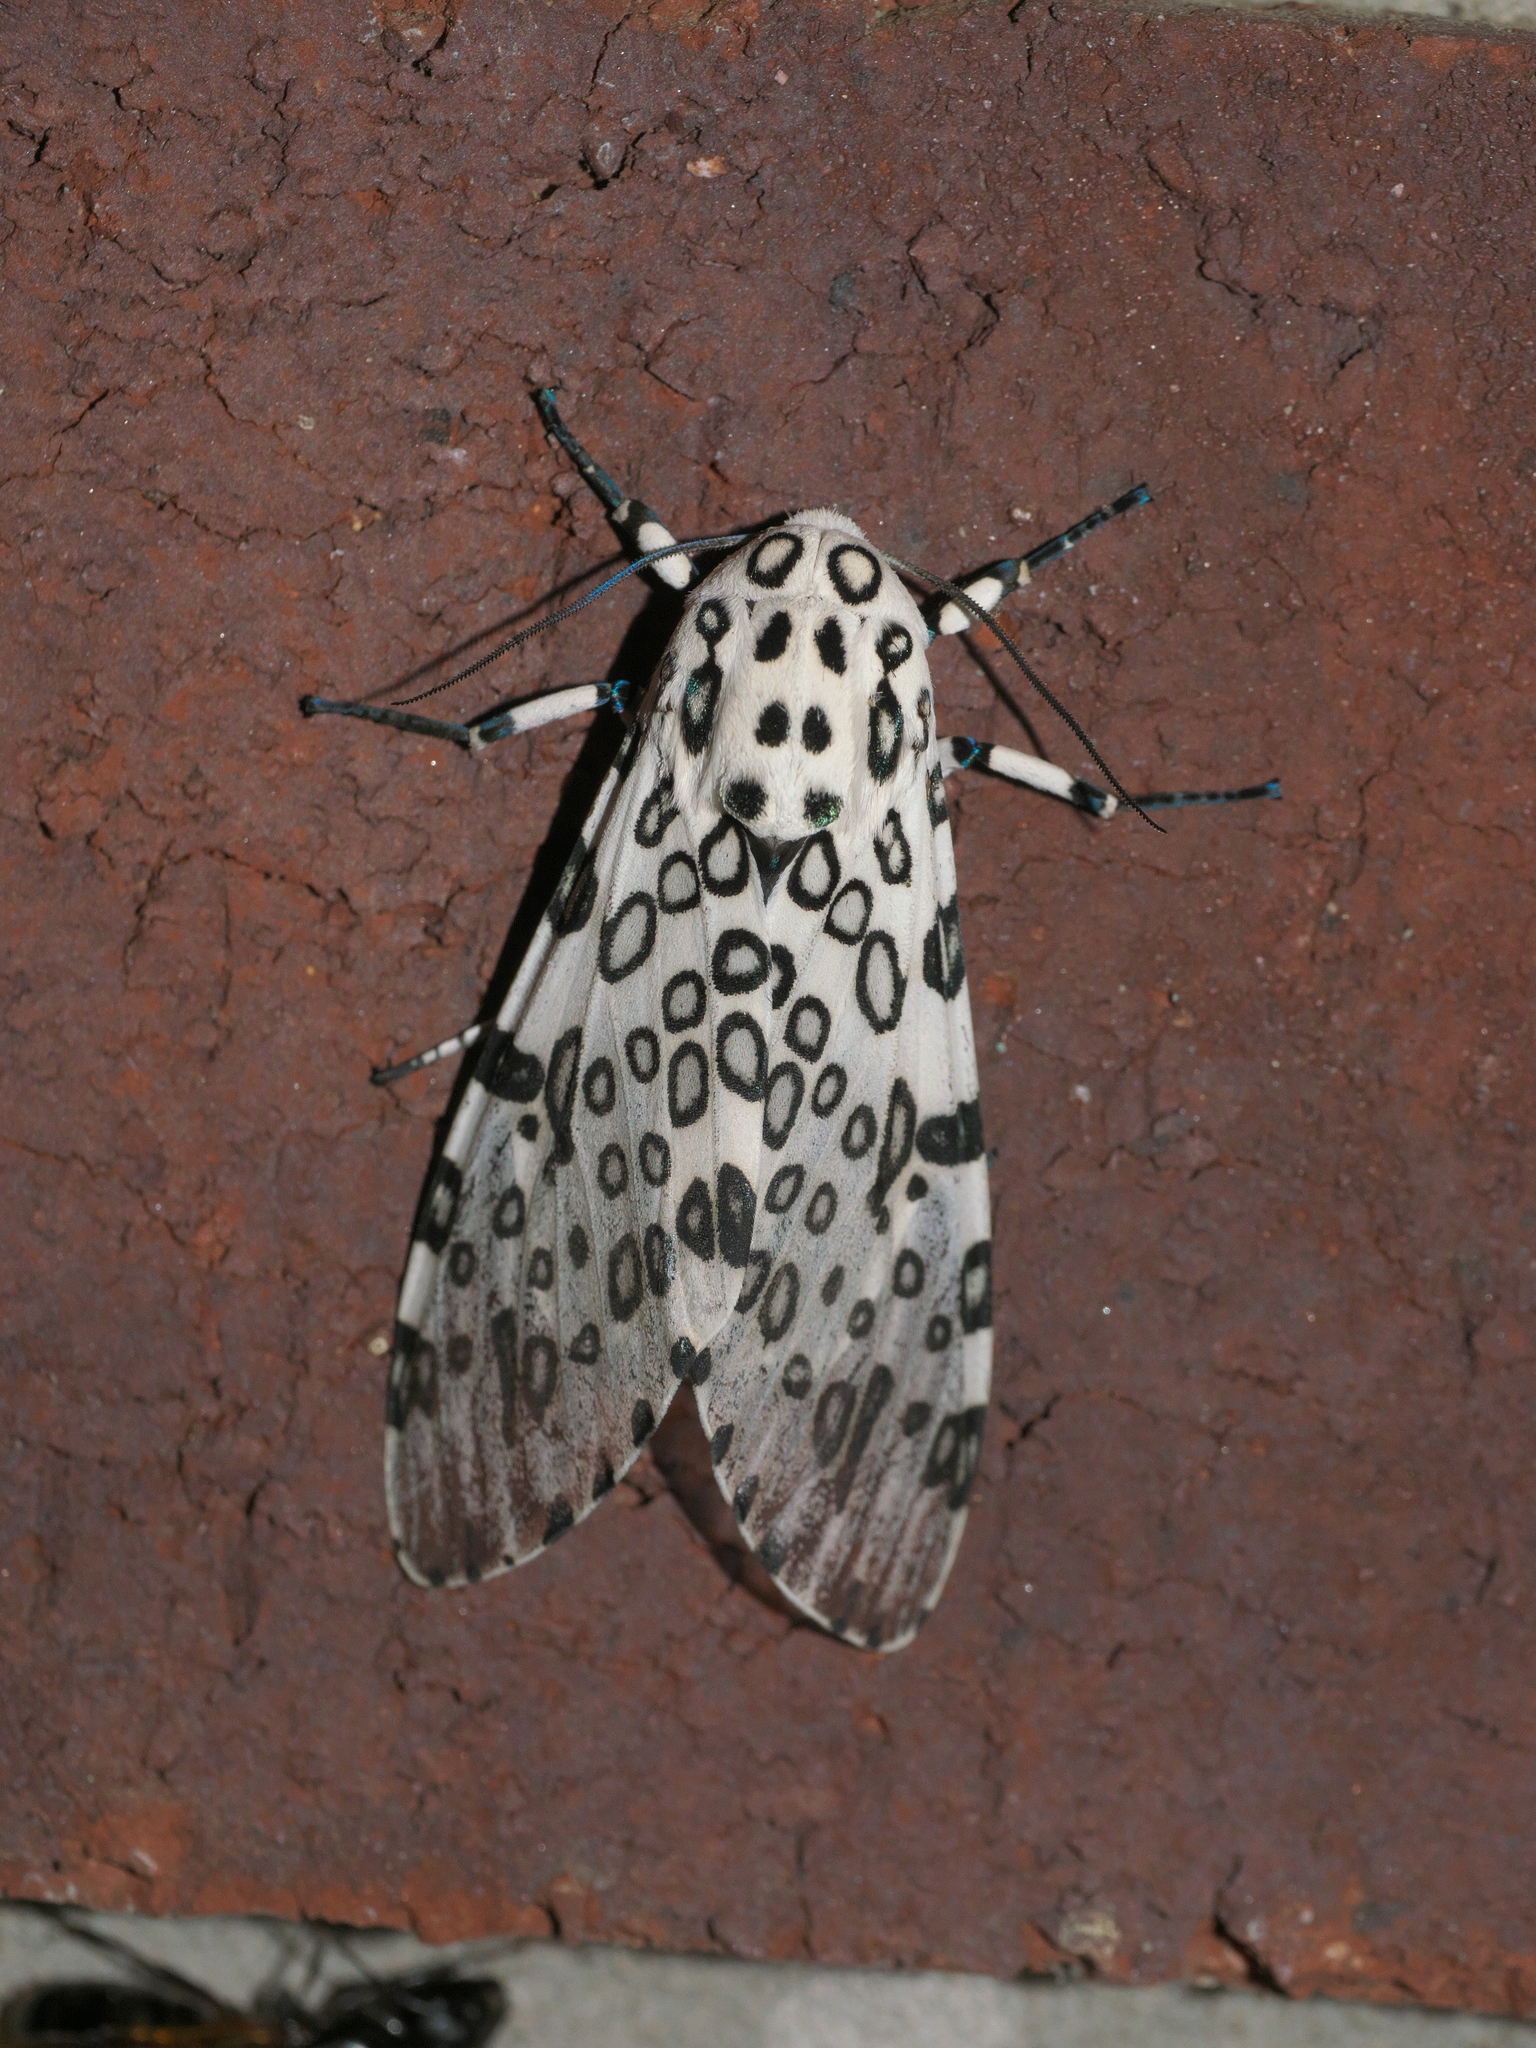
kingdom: Animalia
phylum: Arthropoda
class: Insecta
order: Lepidoptera
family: Erebidae
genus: Hypercompe
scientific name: Hypercompe scribonia
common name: Giant leopard moth
